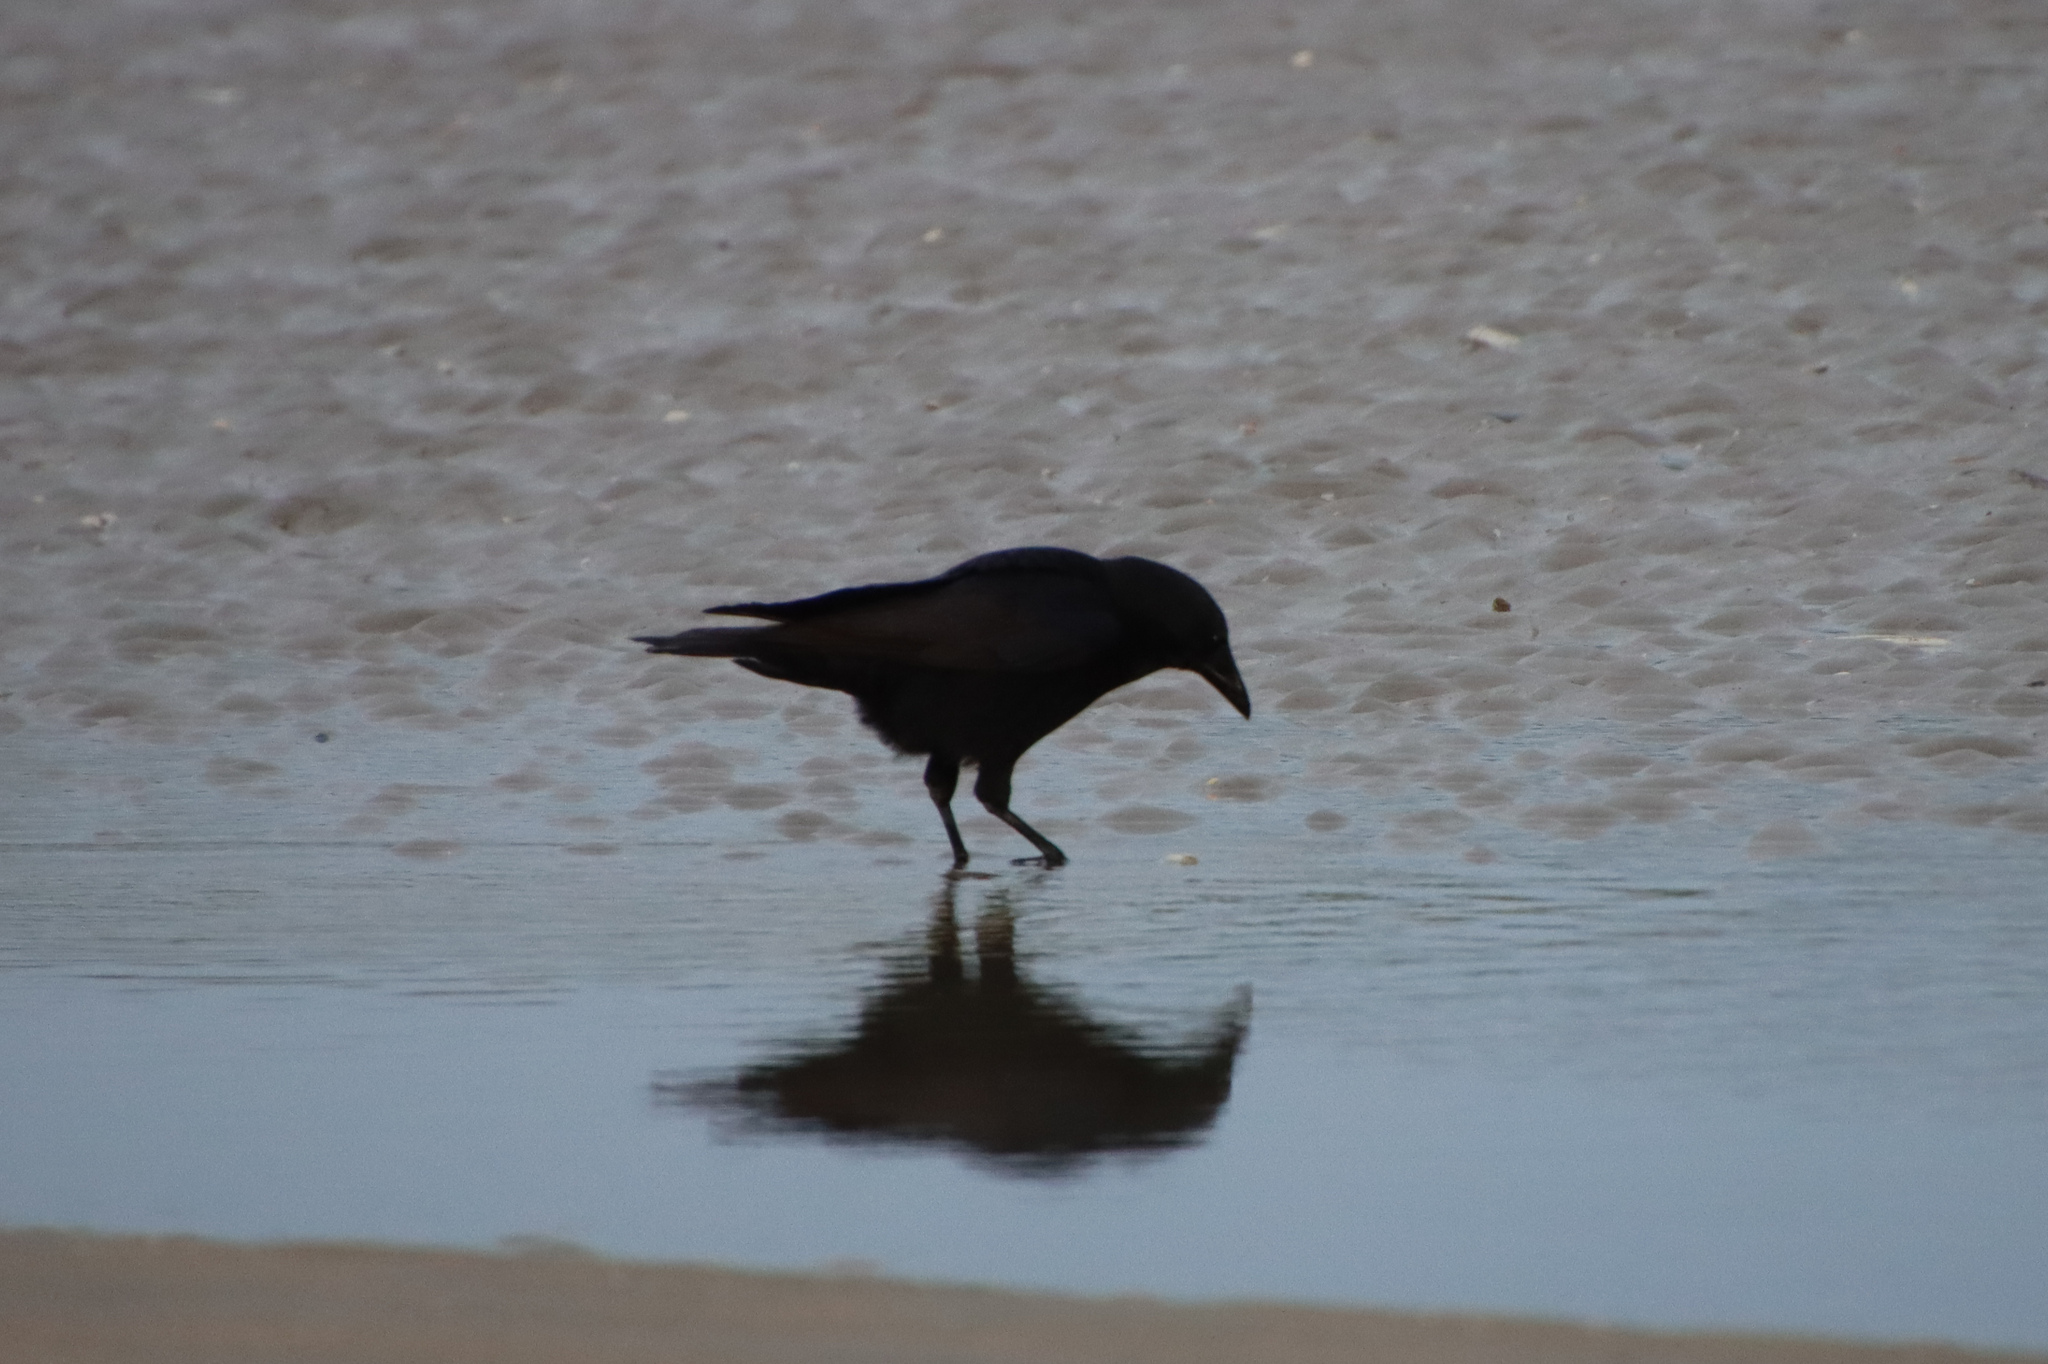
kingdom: Animalia
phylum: Chordata
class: Aves
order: Passeriformes
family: Corvidae
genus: Corvus
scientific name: Corvus corone
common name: Carrion crow
